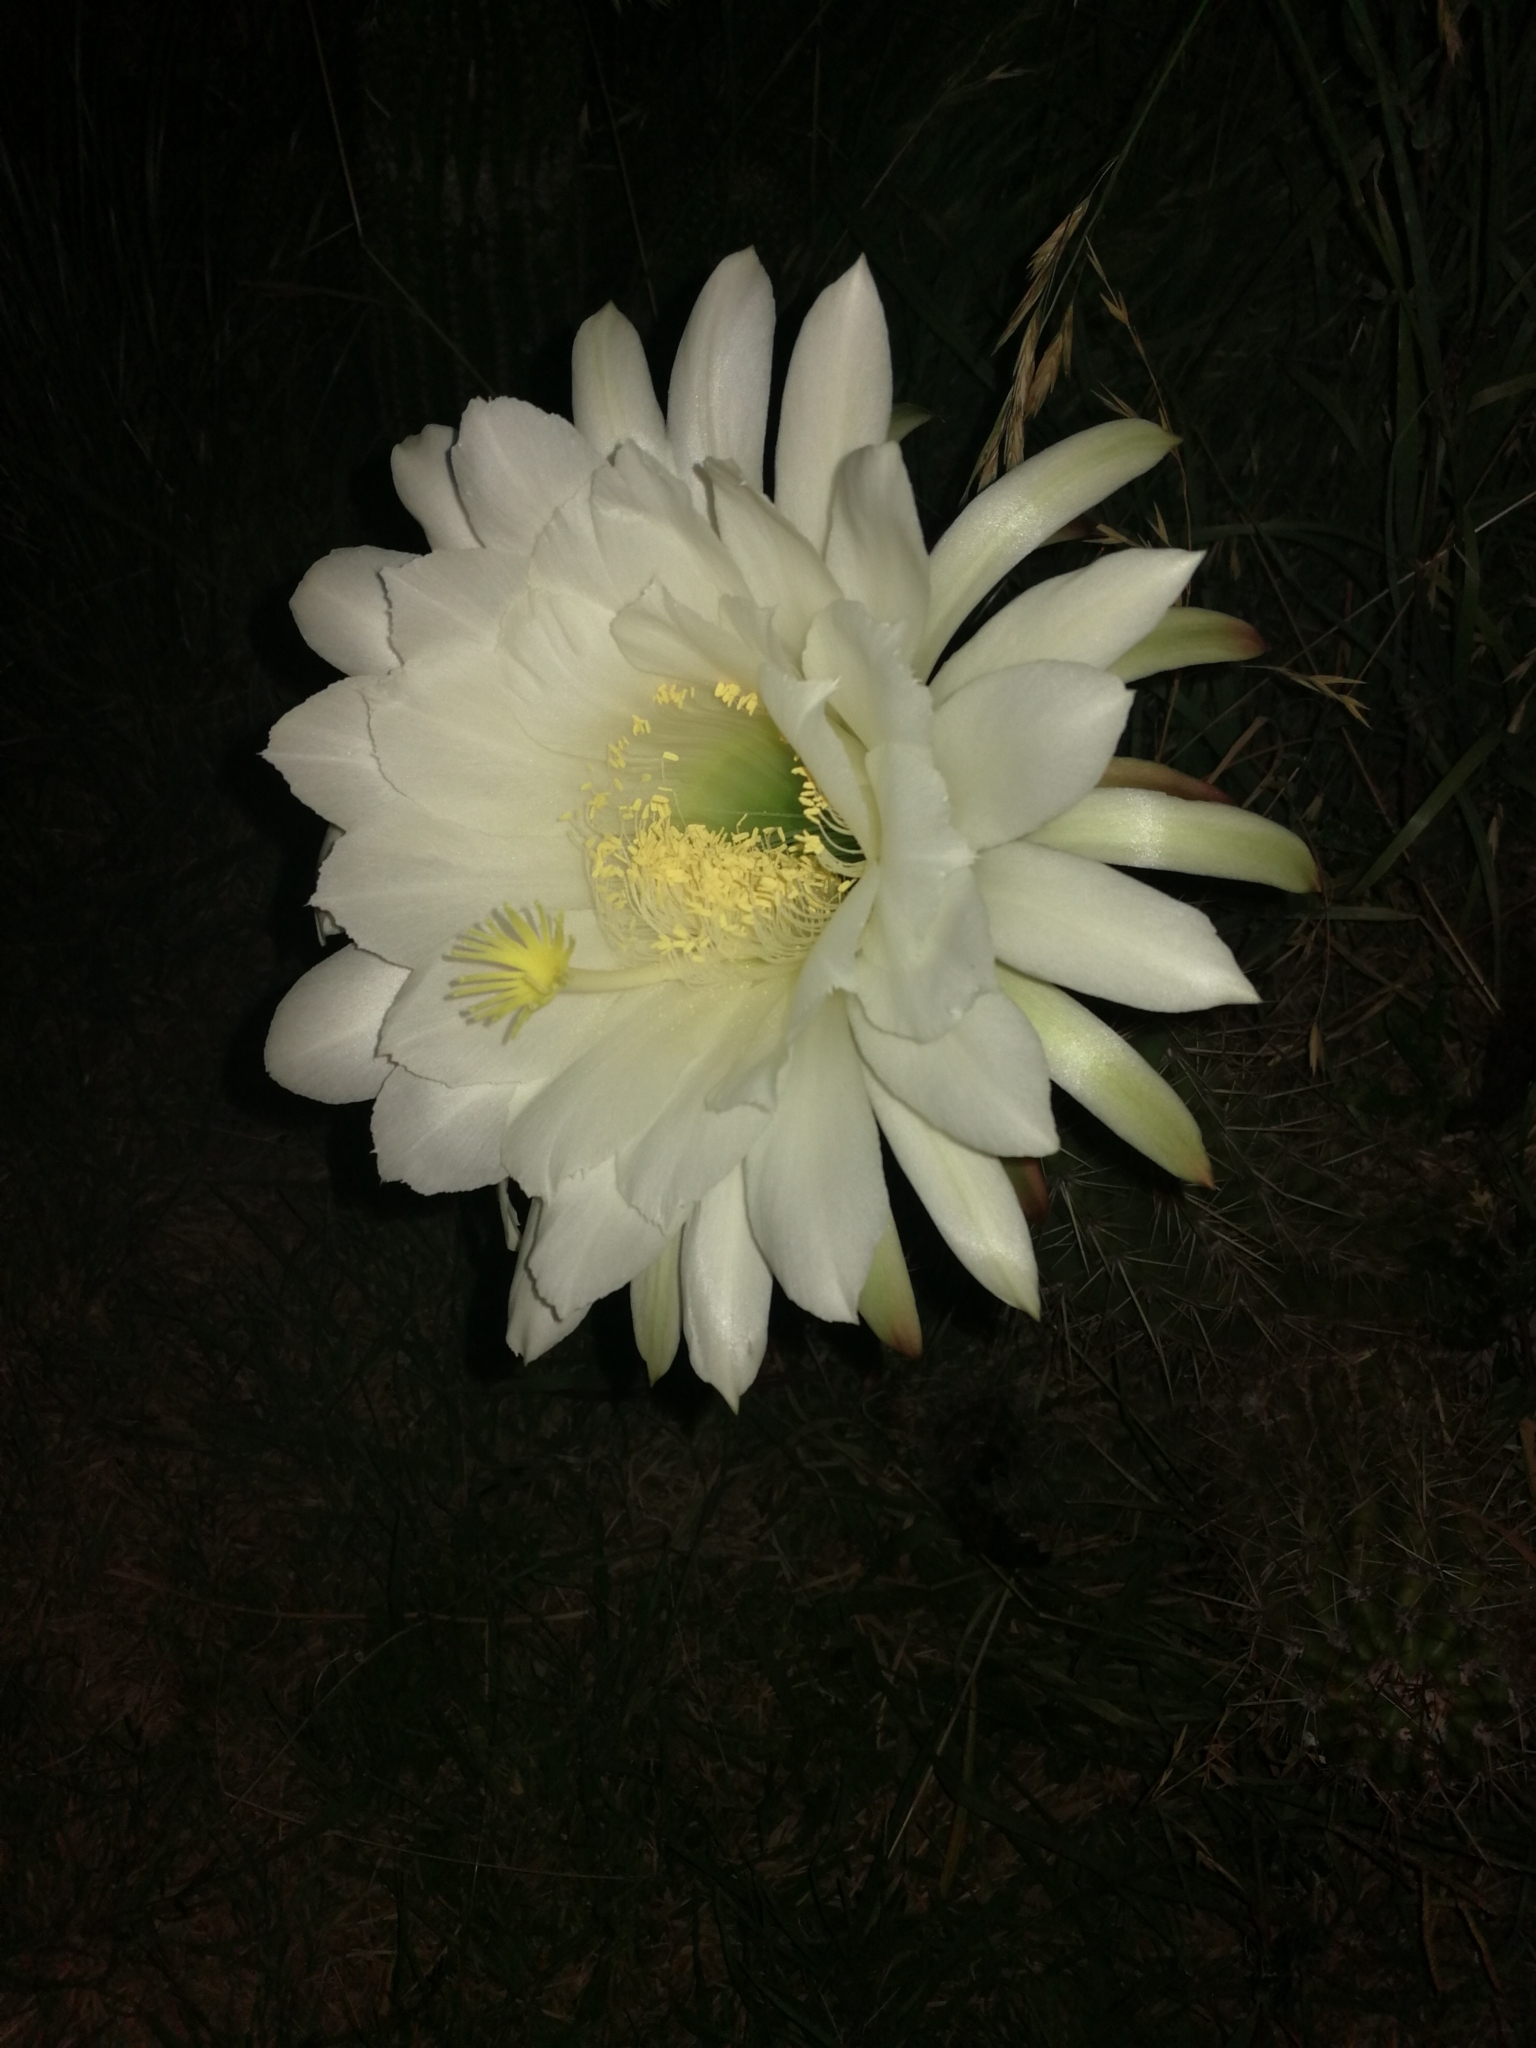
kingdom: Plantae
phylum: Tracheophyta
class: Magnoliopsida
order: Caryophyllales
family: Cactaceae
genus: Soehrensia
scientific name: Soehrensia candicans
